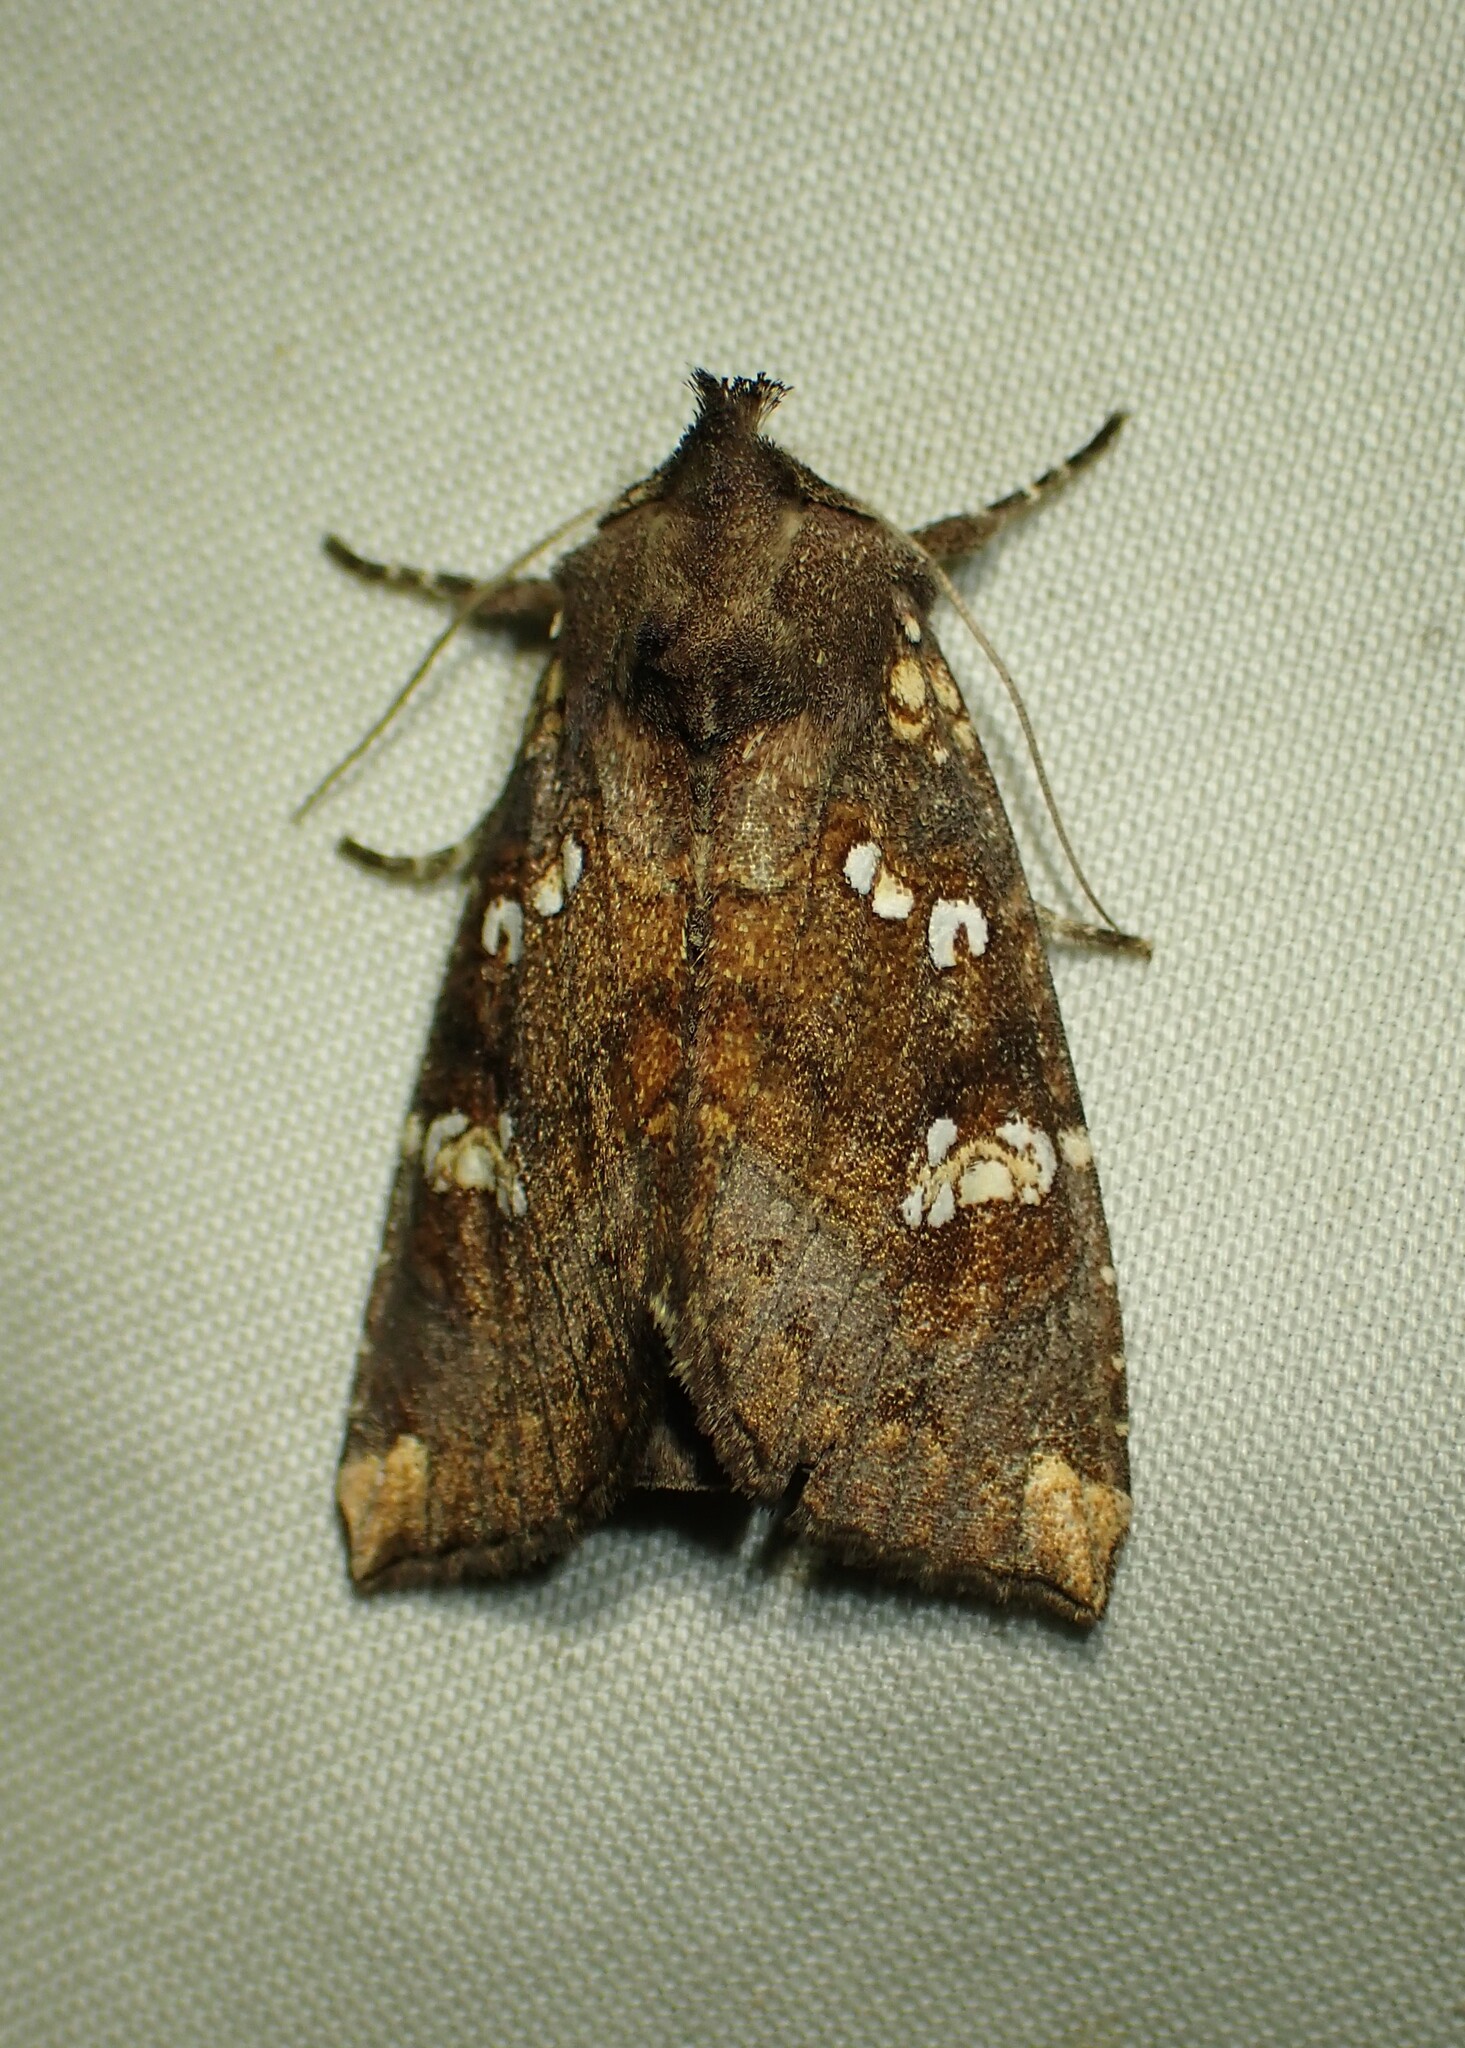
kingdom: Animalia
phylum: Arthropoda
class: Insecta
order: Lepidoptera
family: Noctuidae
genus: Papaipema
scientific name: Papaipema unimoda
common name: Meadow rue borer moth
